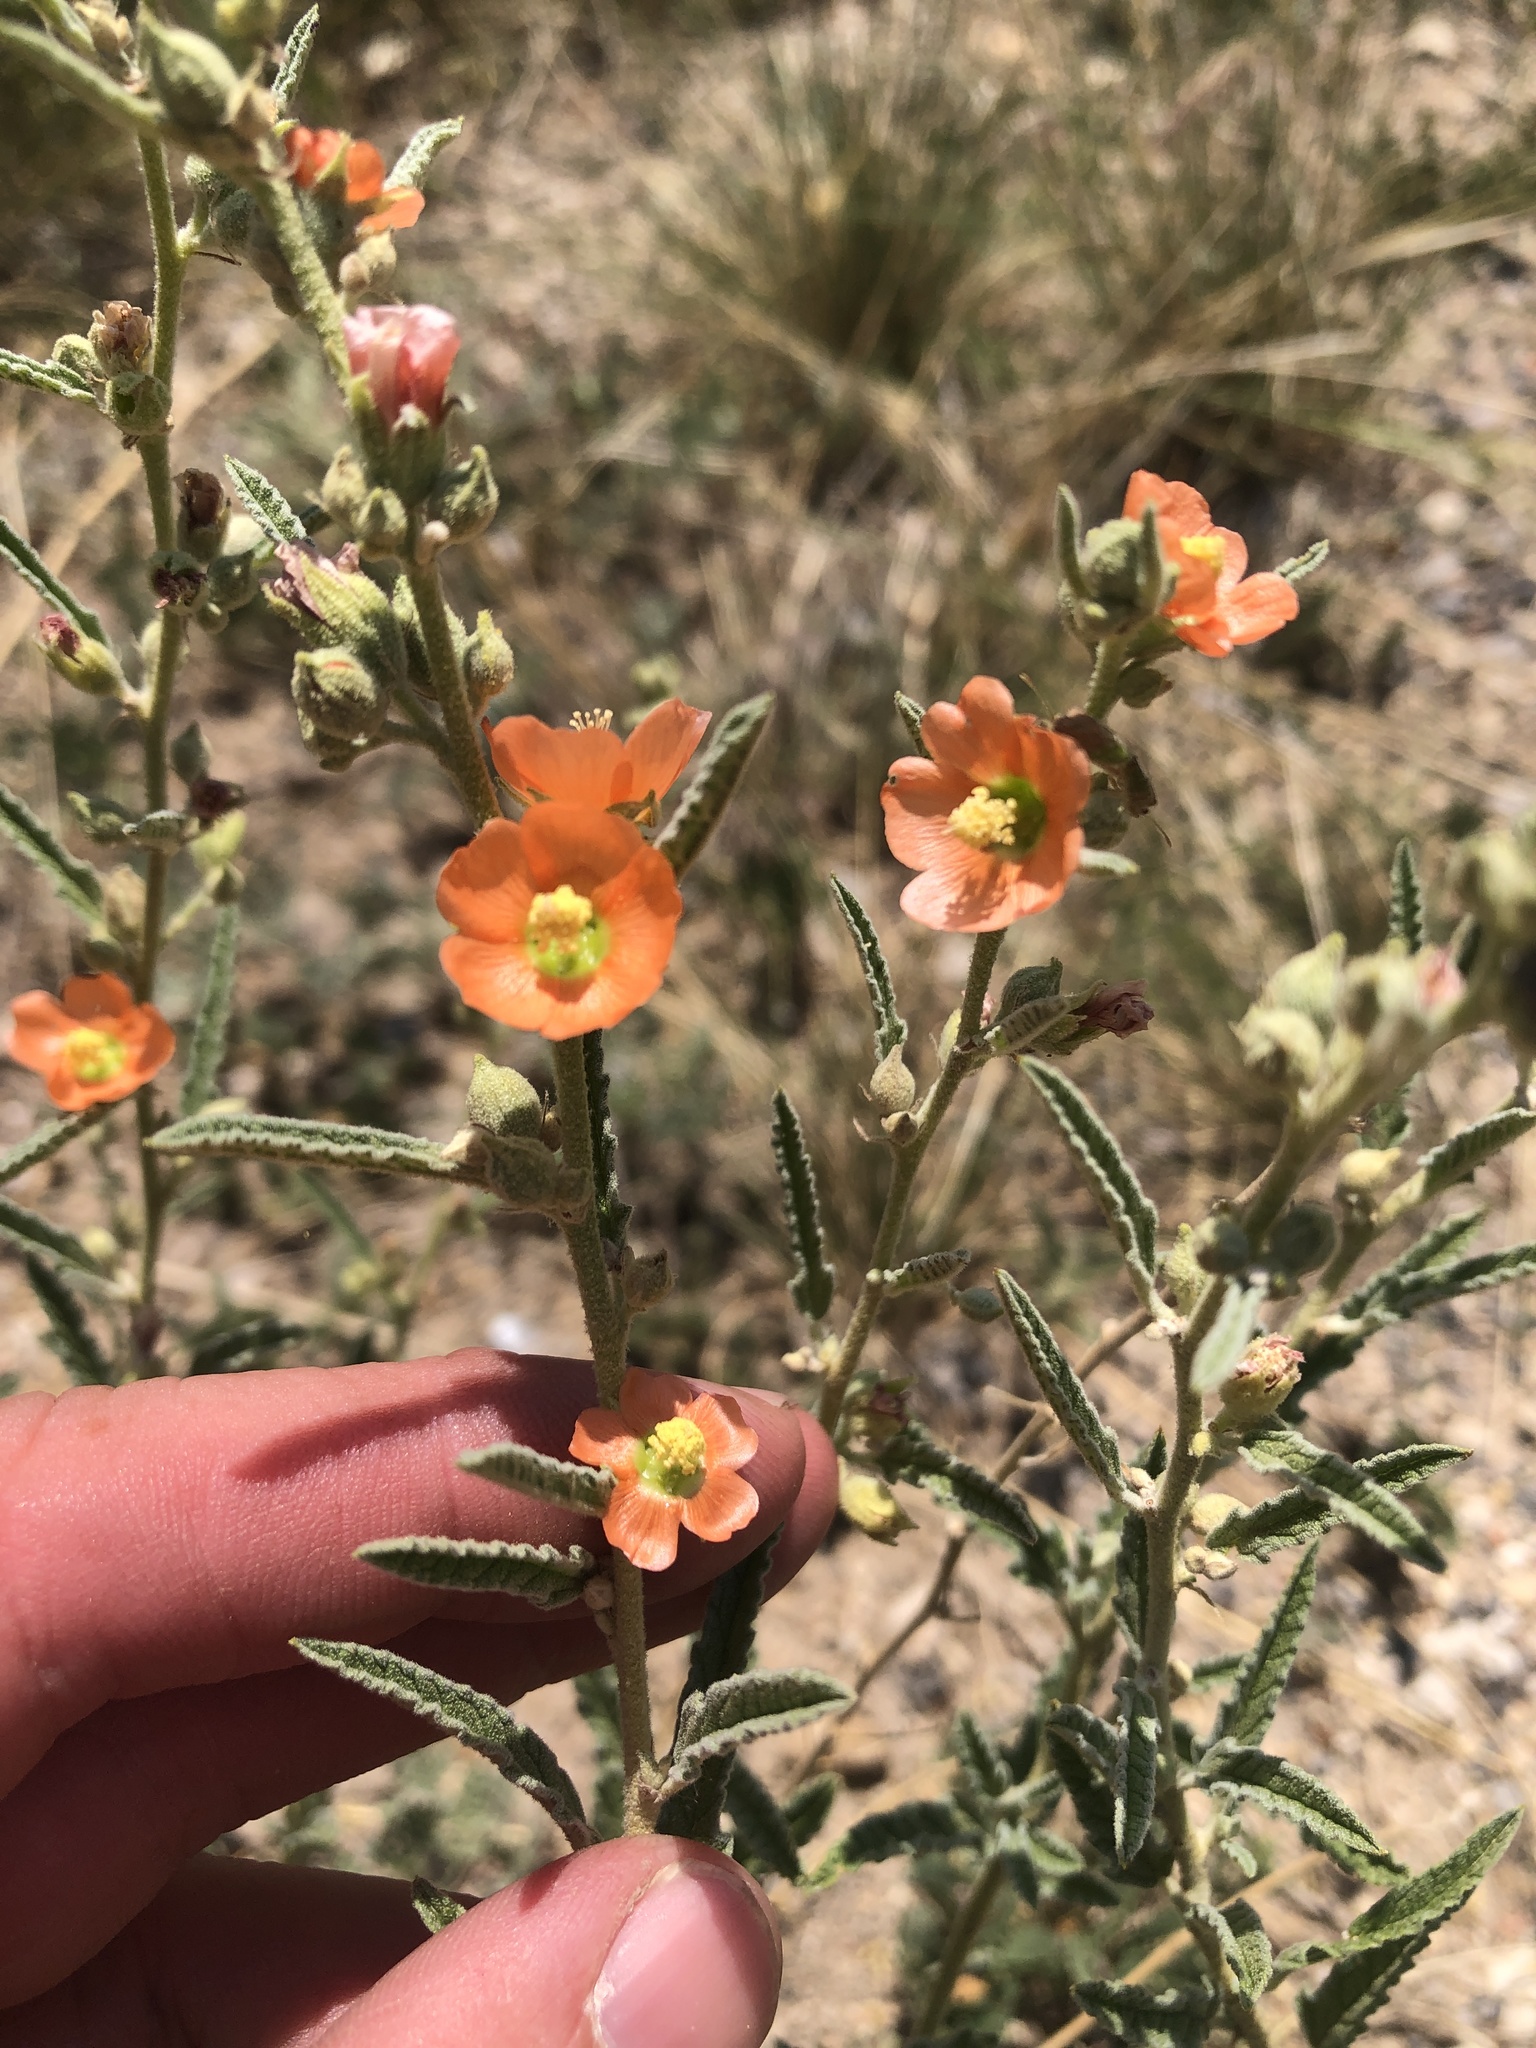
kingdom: Plantae
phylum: Tracheophyta
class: Magnoliopsida
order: Malvales
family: Malvaceae
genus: Sphaeralcea
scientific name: Sphaeralcea angustifolia
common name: Copper globe-mallow
